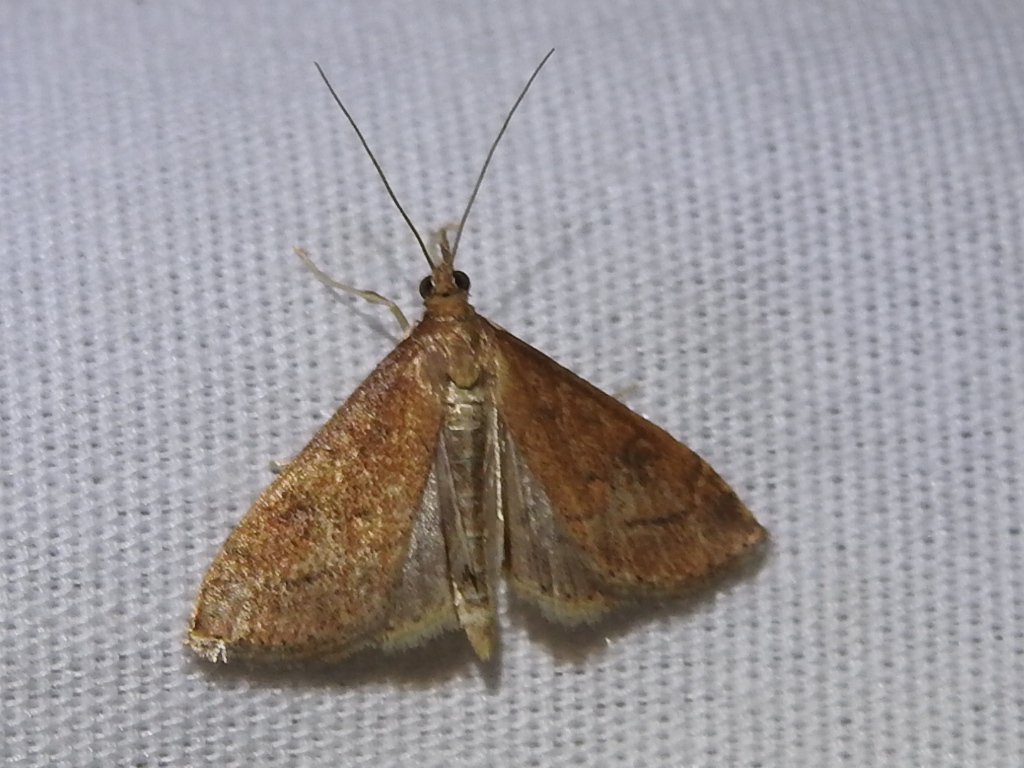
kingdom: Animalia
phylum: Arthropoda
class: Insecta
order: Lepidoptera
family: Crambidae
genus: Udea
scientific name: Udea rubigalis
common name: Celery leaftier moth
